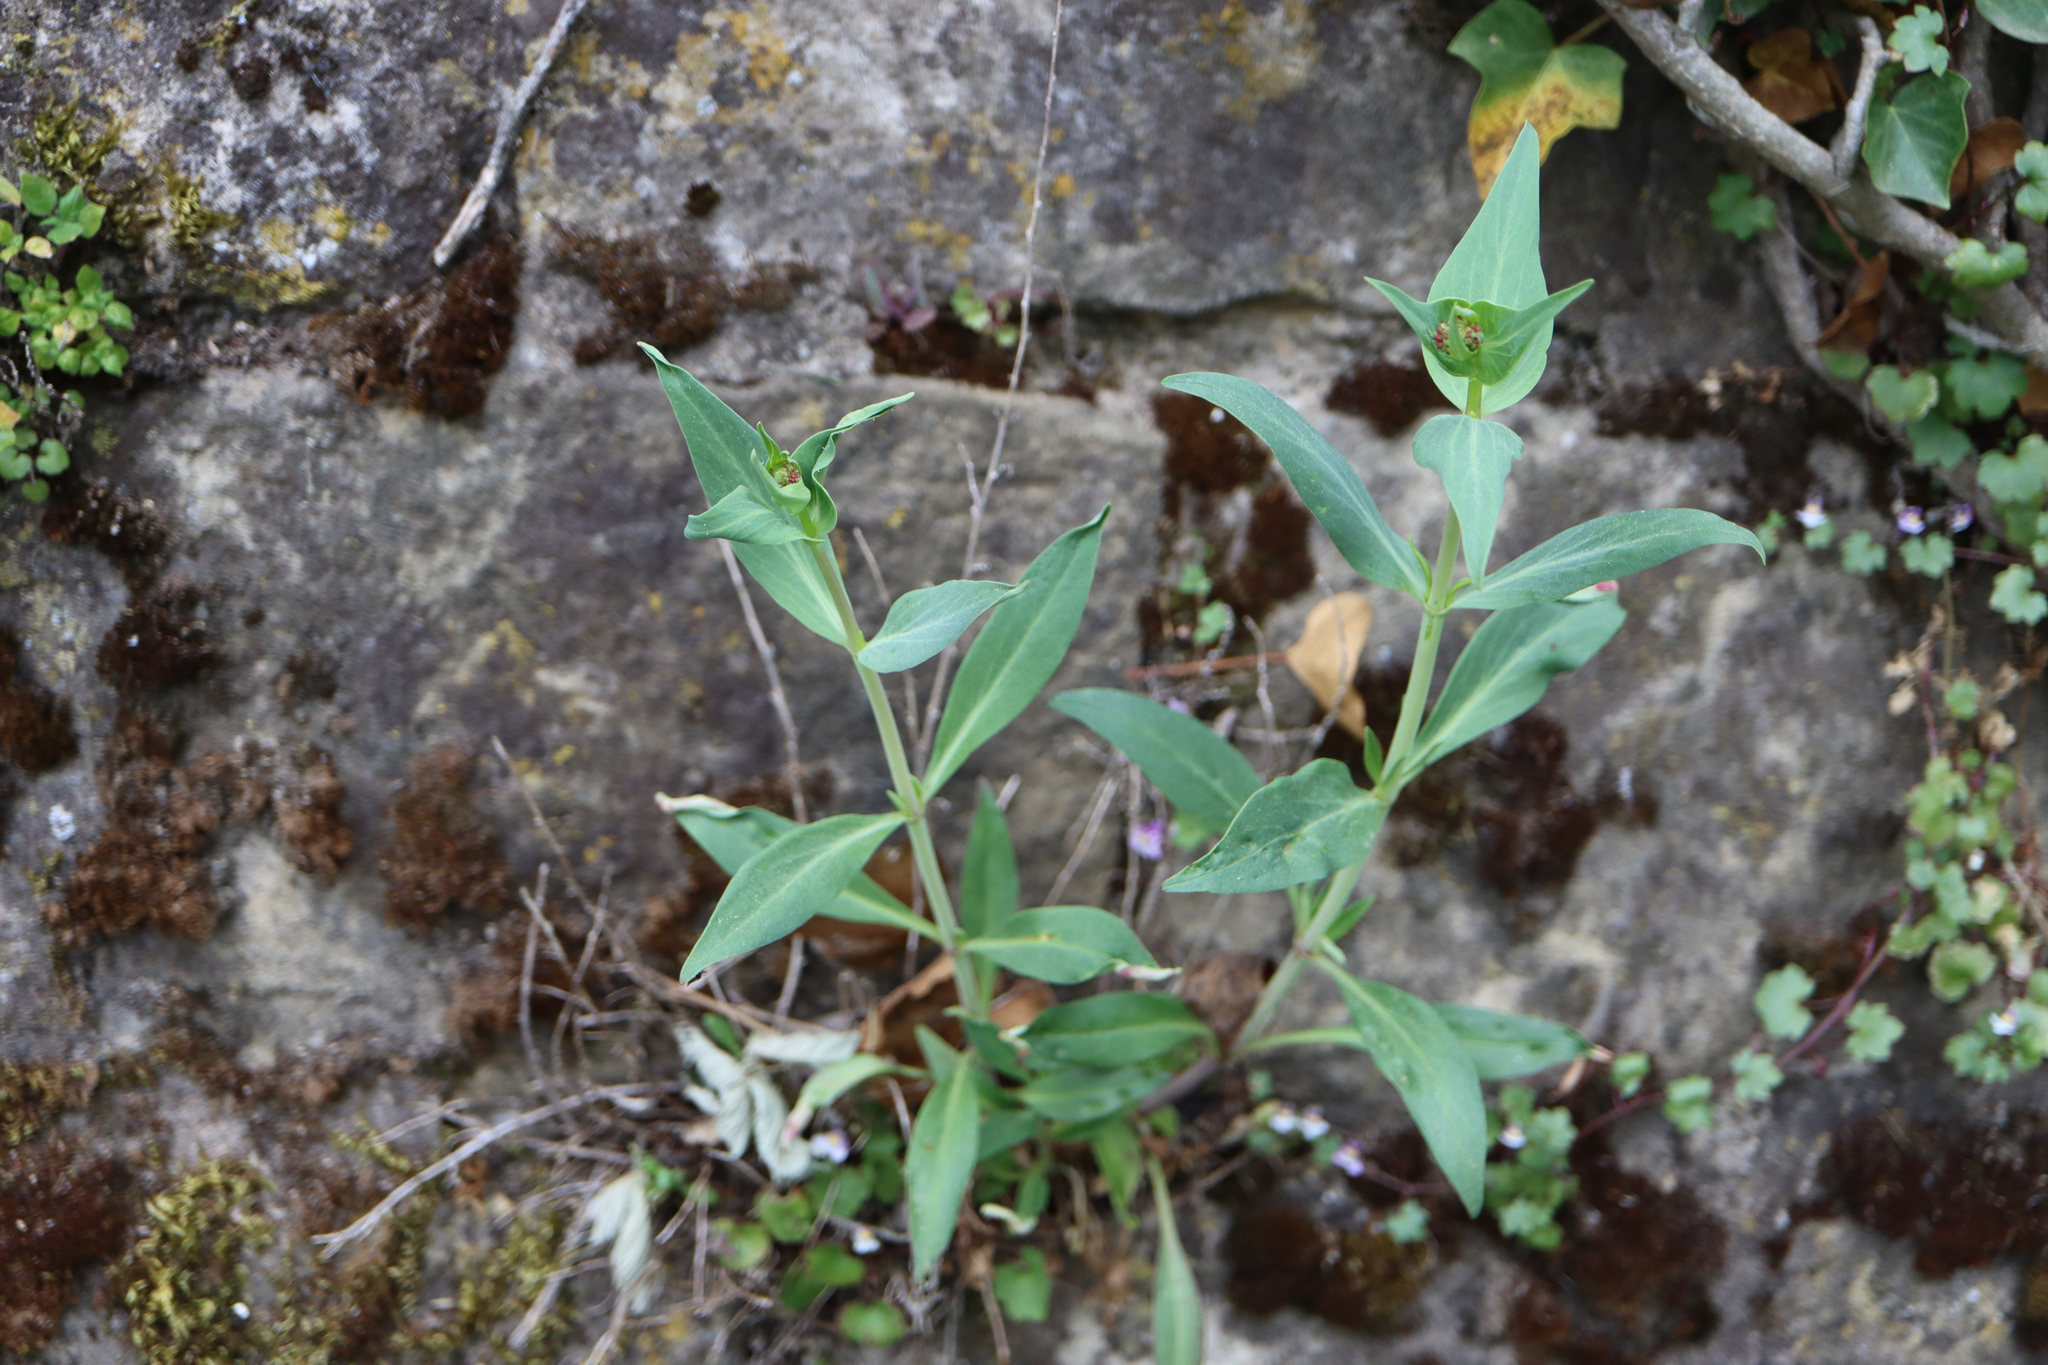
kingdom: Plantae
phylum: Tracheophyta
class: Magnoliopsida
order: Dipsacales
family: Caprifoliaceae
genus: Centranthus
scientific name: Centranthus ruber
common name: Red valerian
